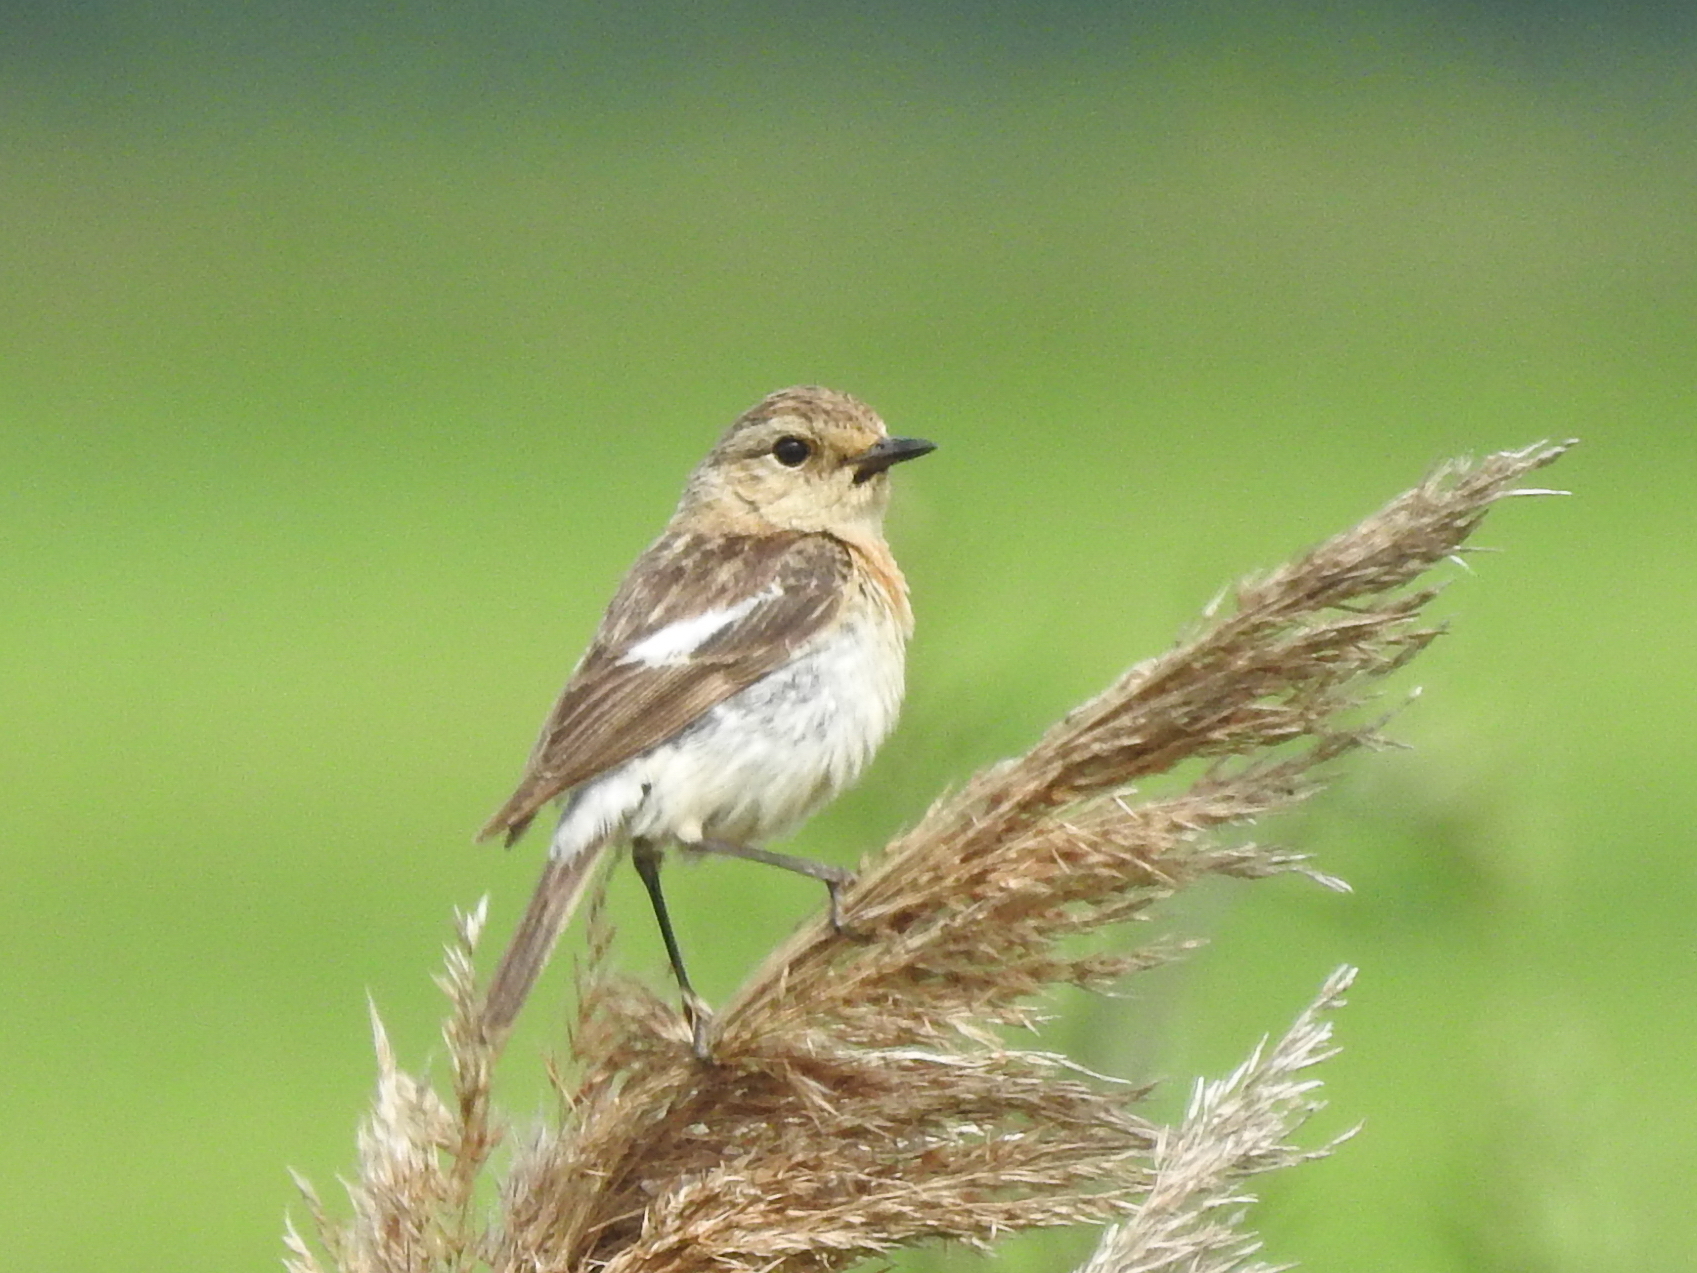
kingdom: Animalia
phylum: Chordata
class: Aves
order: Passeriformes
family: Muscicapidae
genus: Saxicola
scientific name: Saxicola maurus
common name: Siberian stonechat
